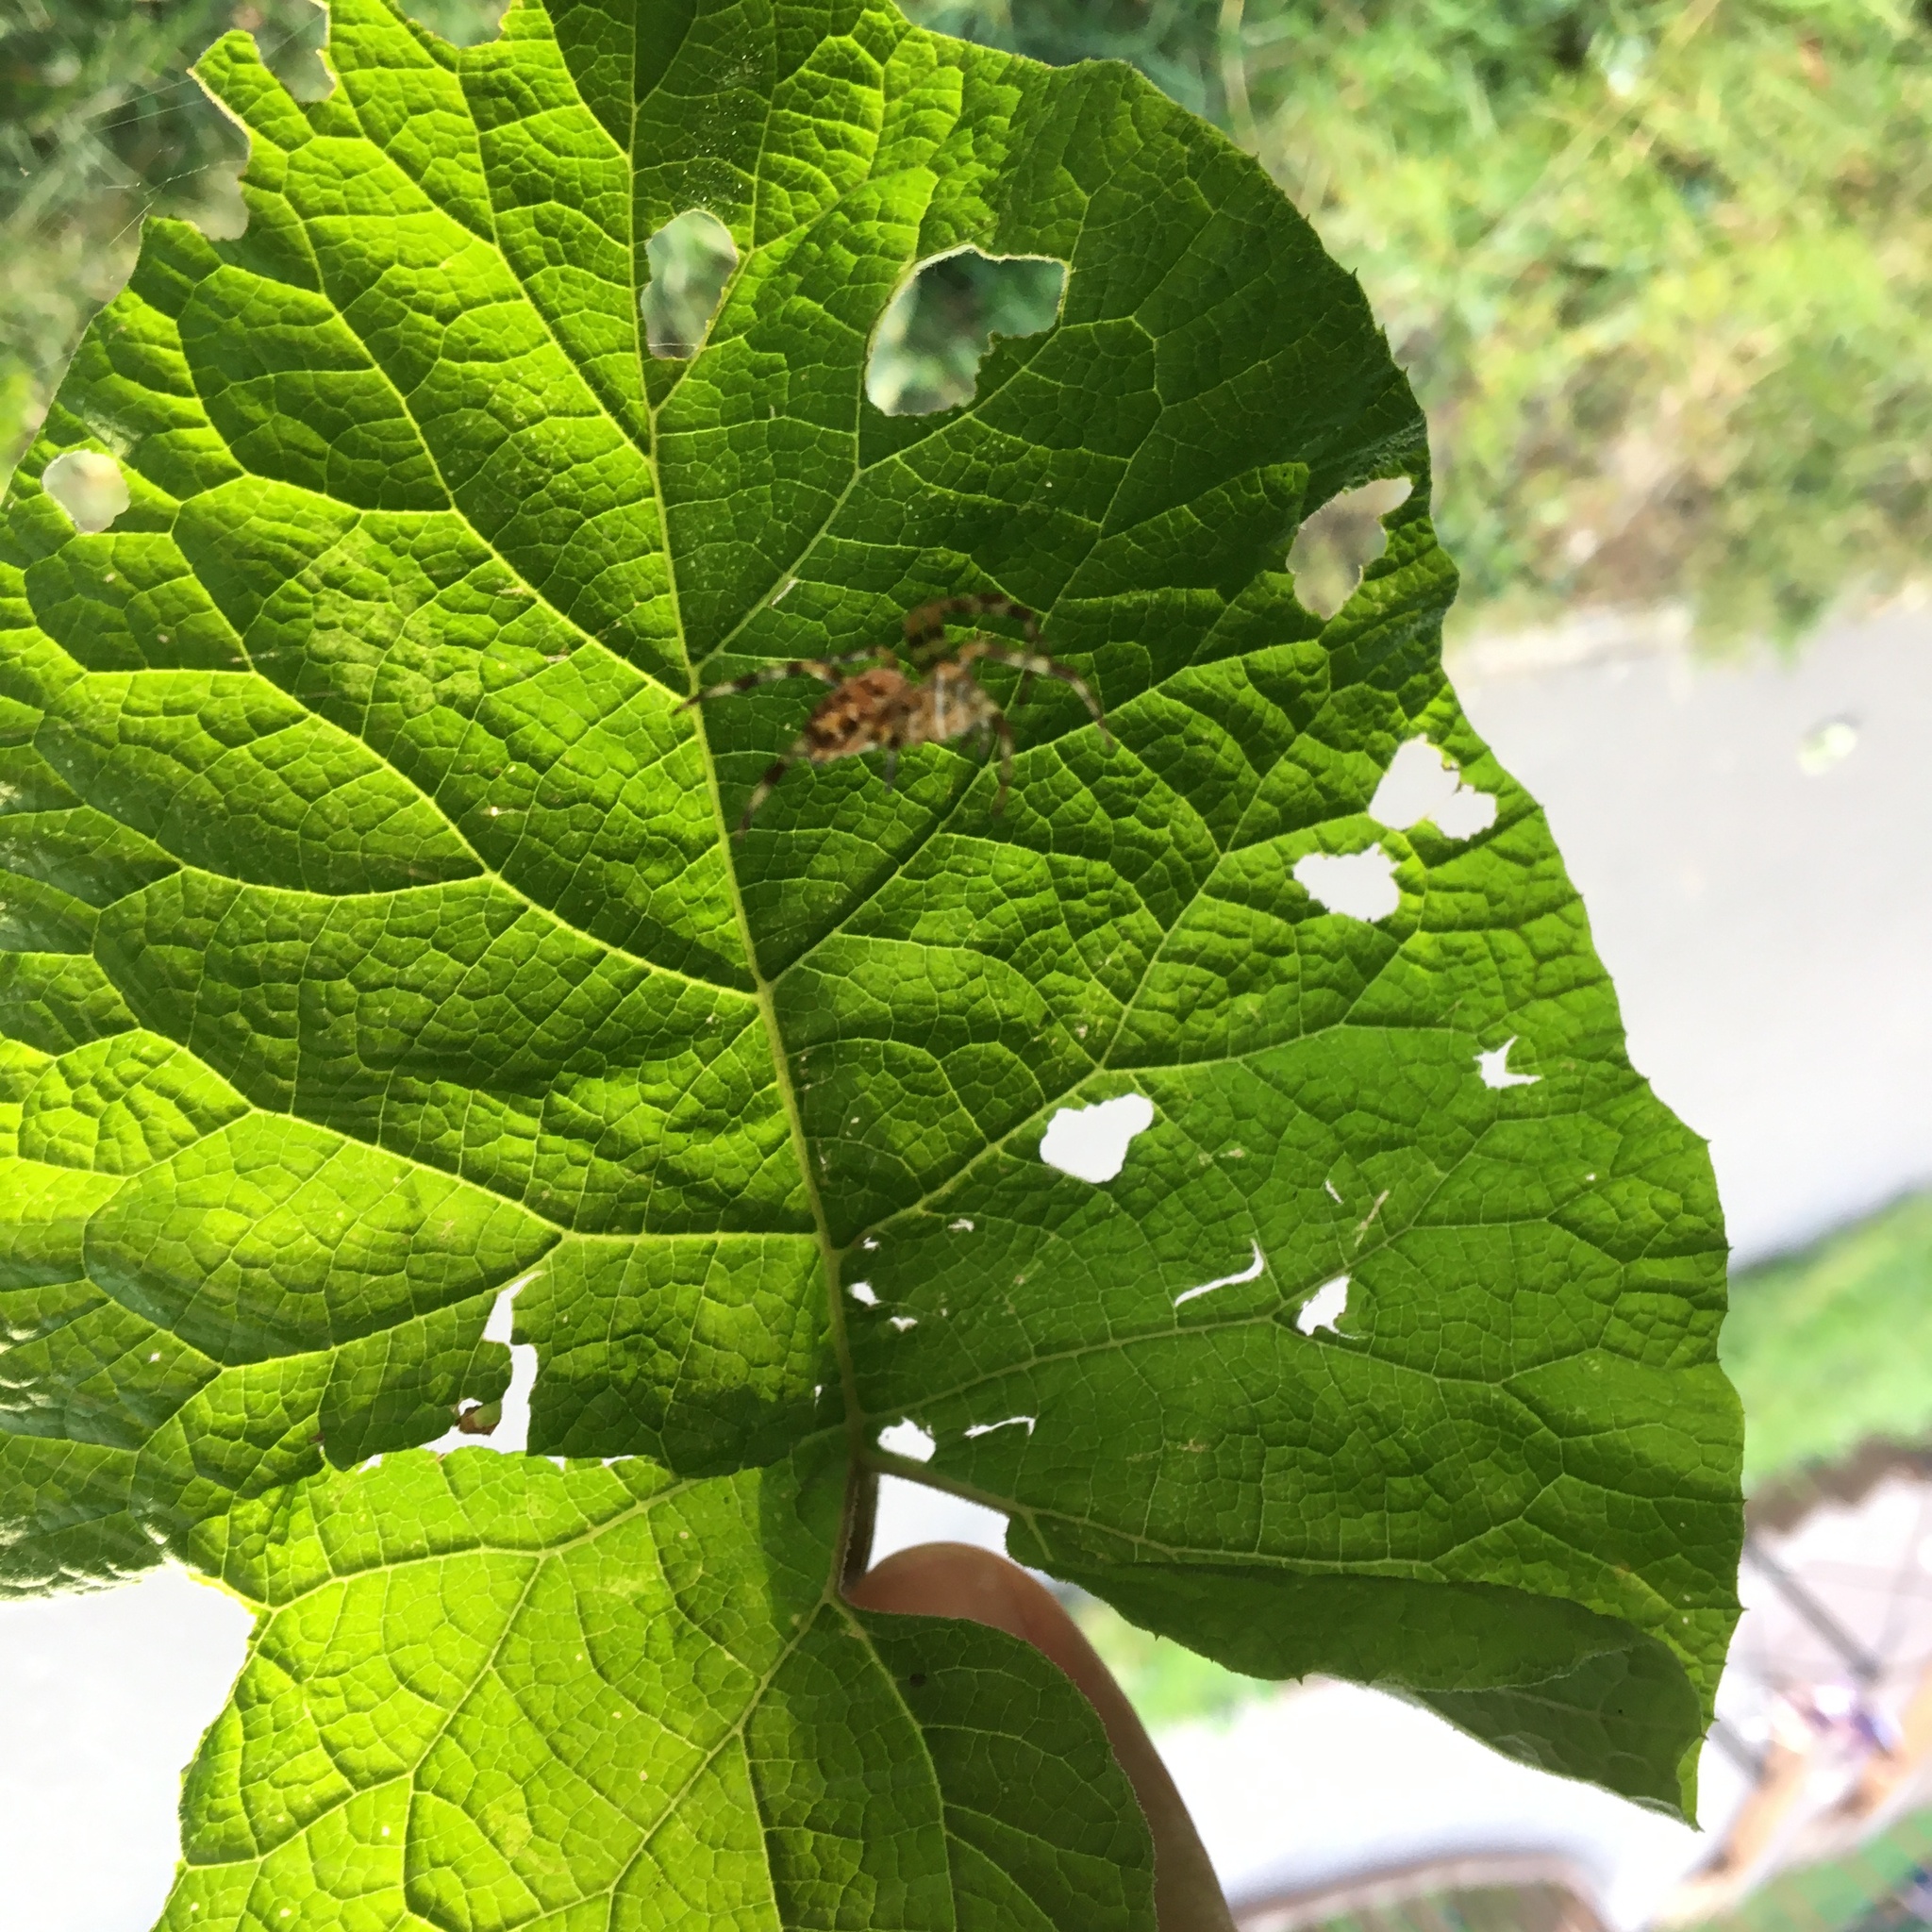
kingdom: Animalia
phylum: Arthropoda
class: Arachnida
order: Araneae
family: Araneidae
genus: Araneus
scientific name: Araneus diadematus
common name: Cross orbweaver
